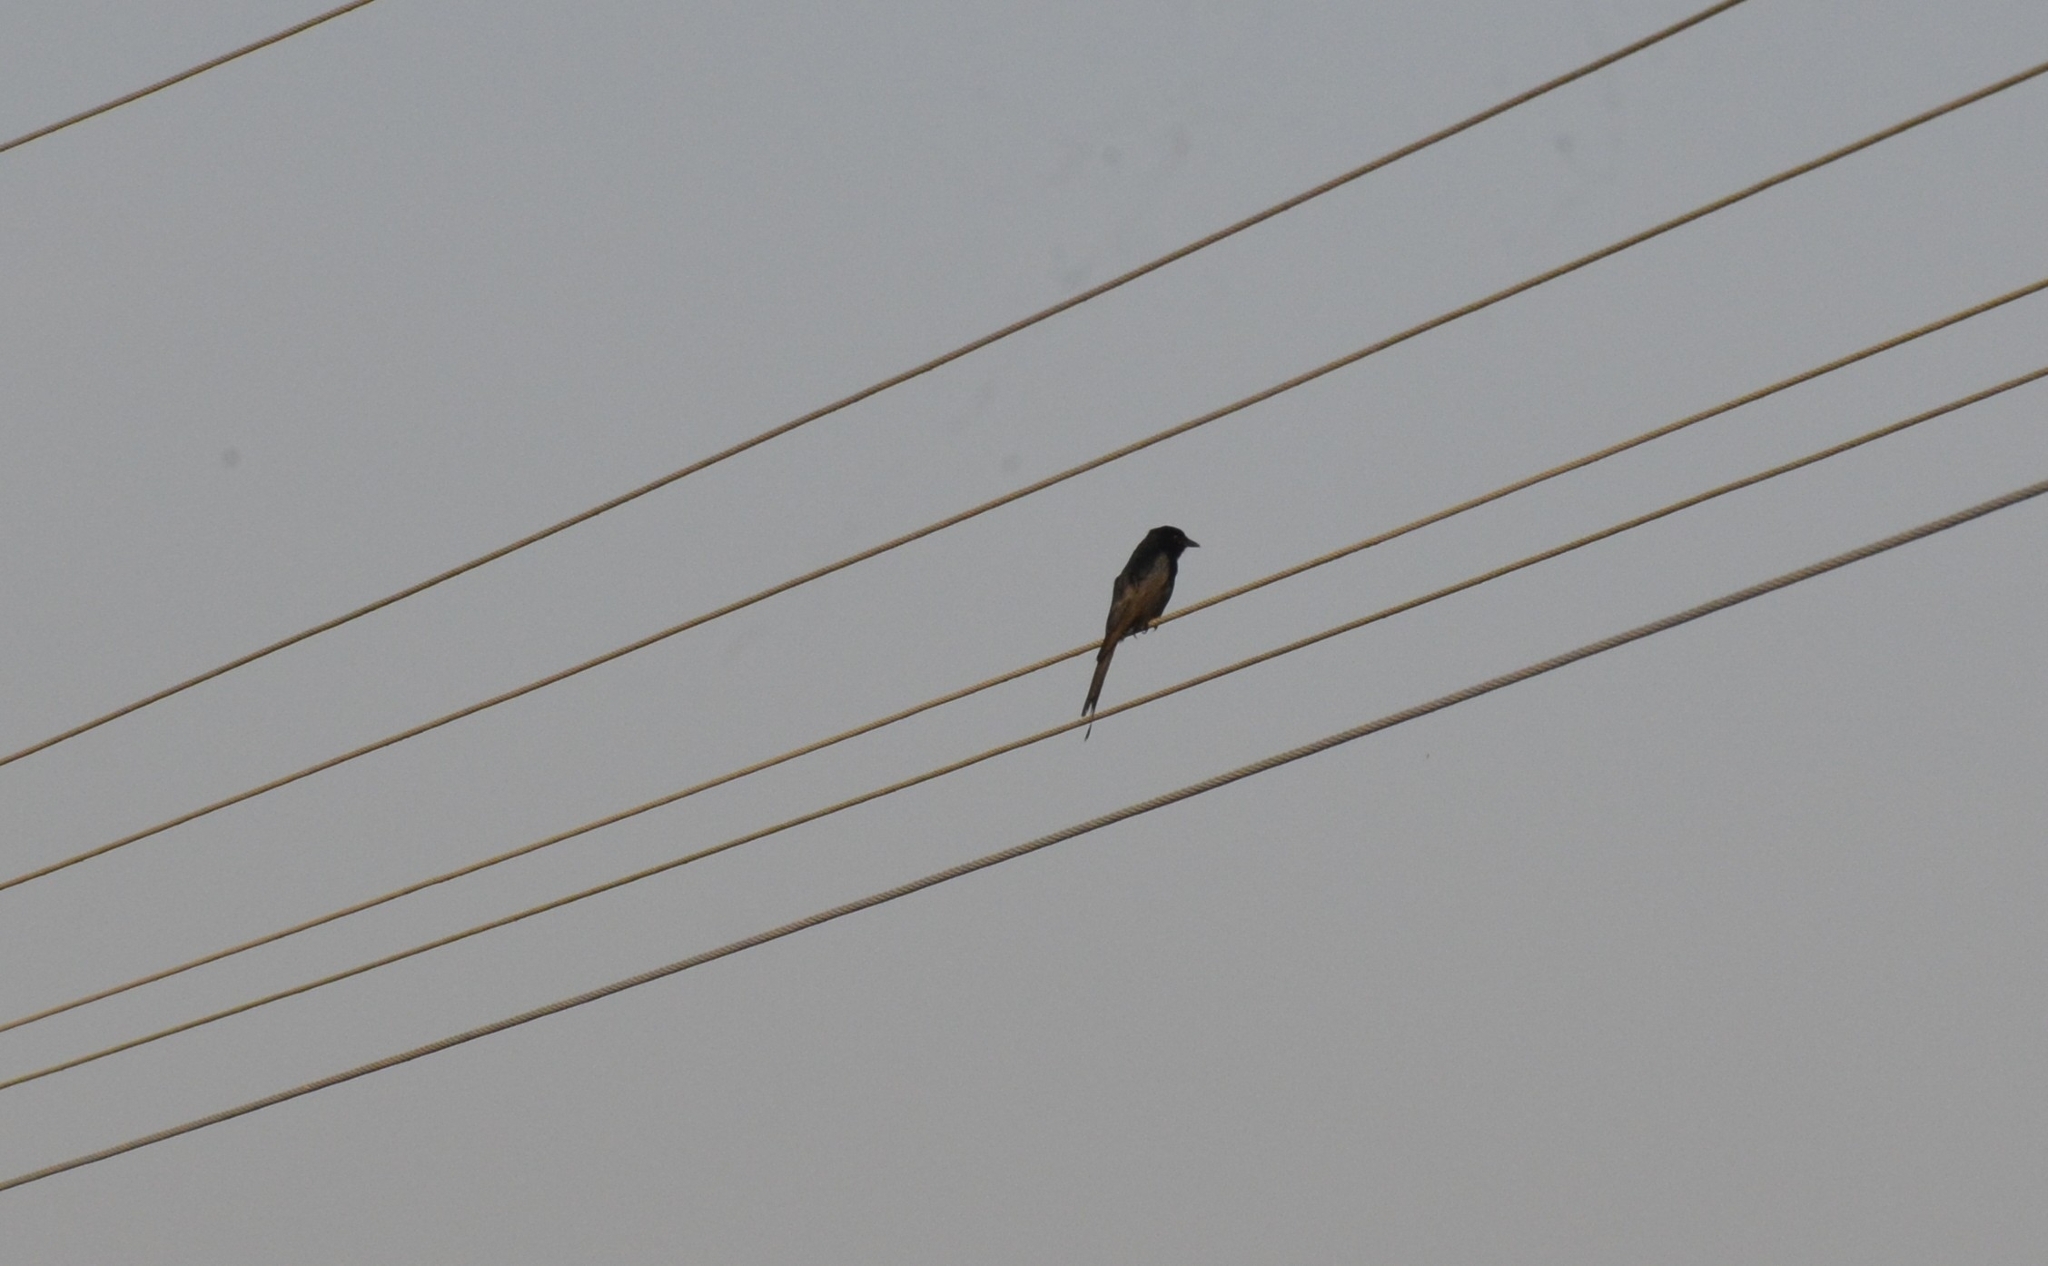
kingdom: Animalia
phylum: Chordata
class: Aves
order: Passeriformes
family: Dicruridae
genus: Dicrurus
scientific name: Dicrurus macrocercus
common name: Black drongo
